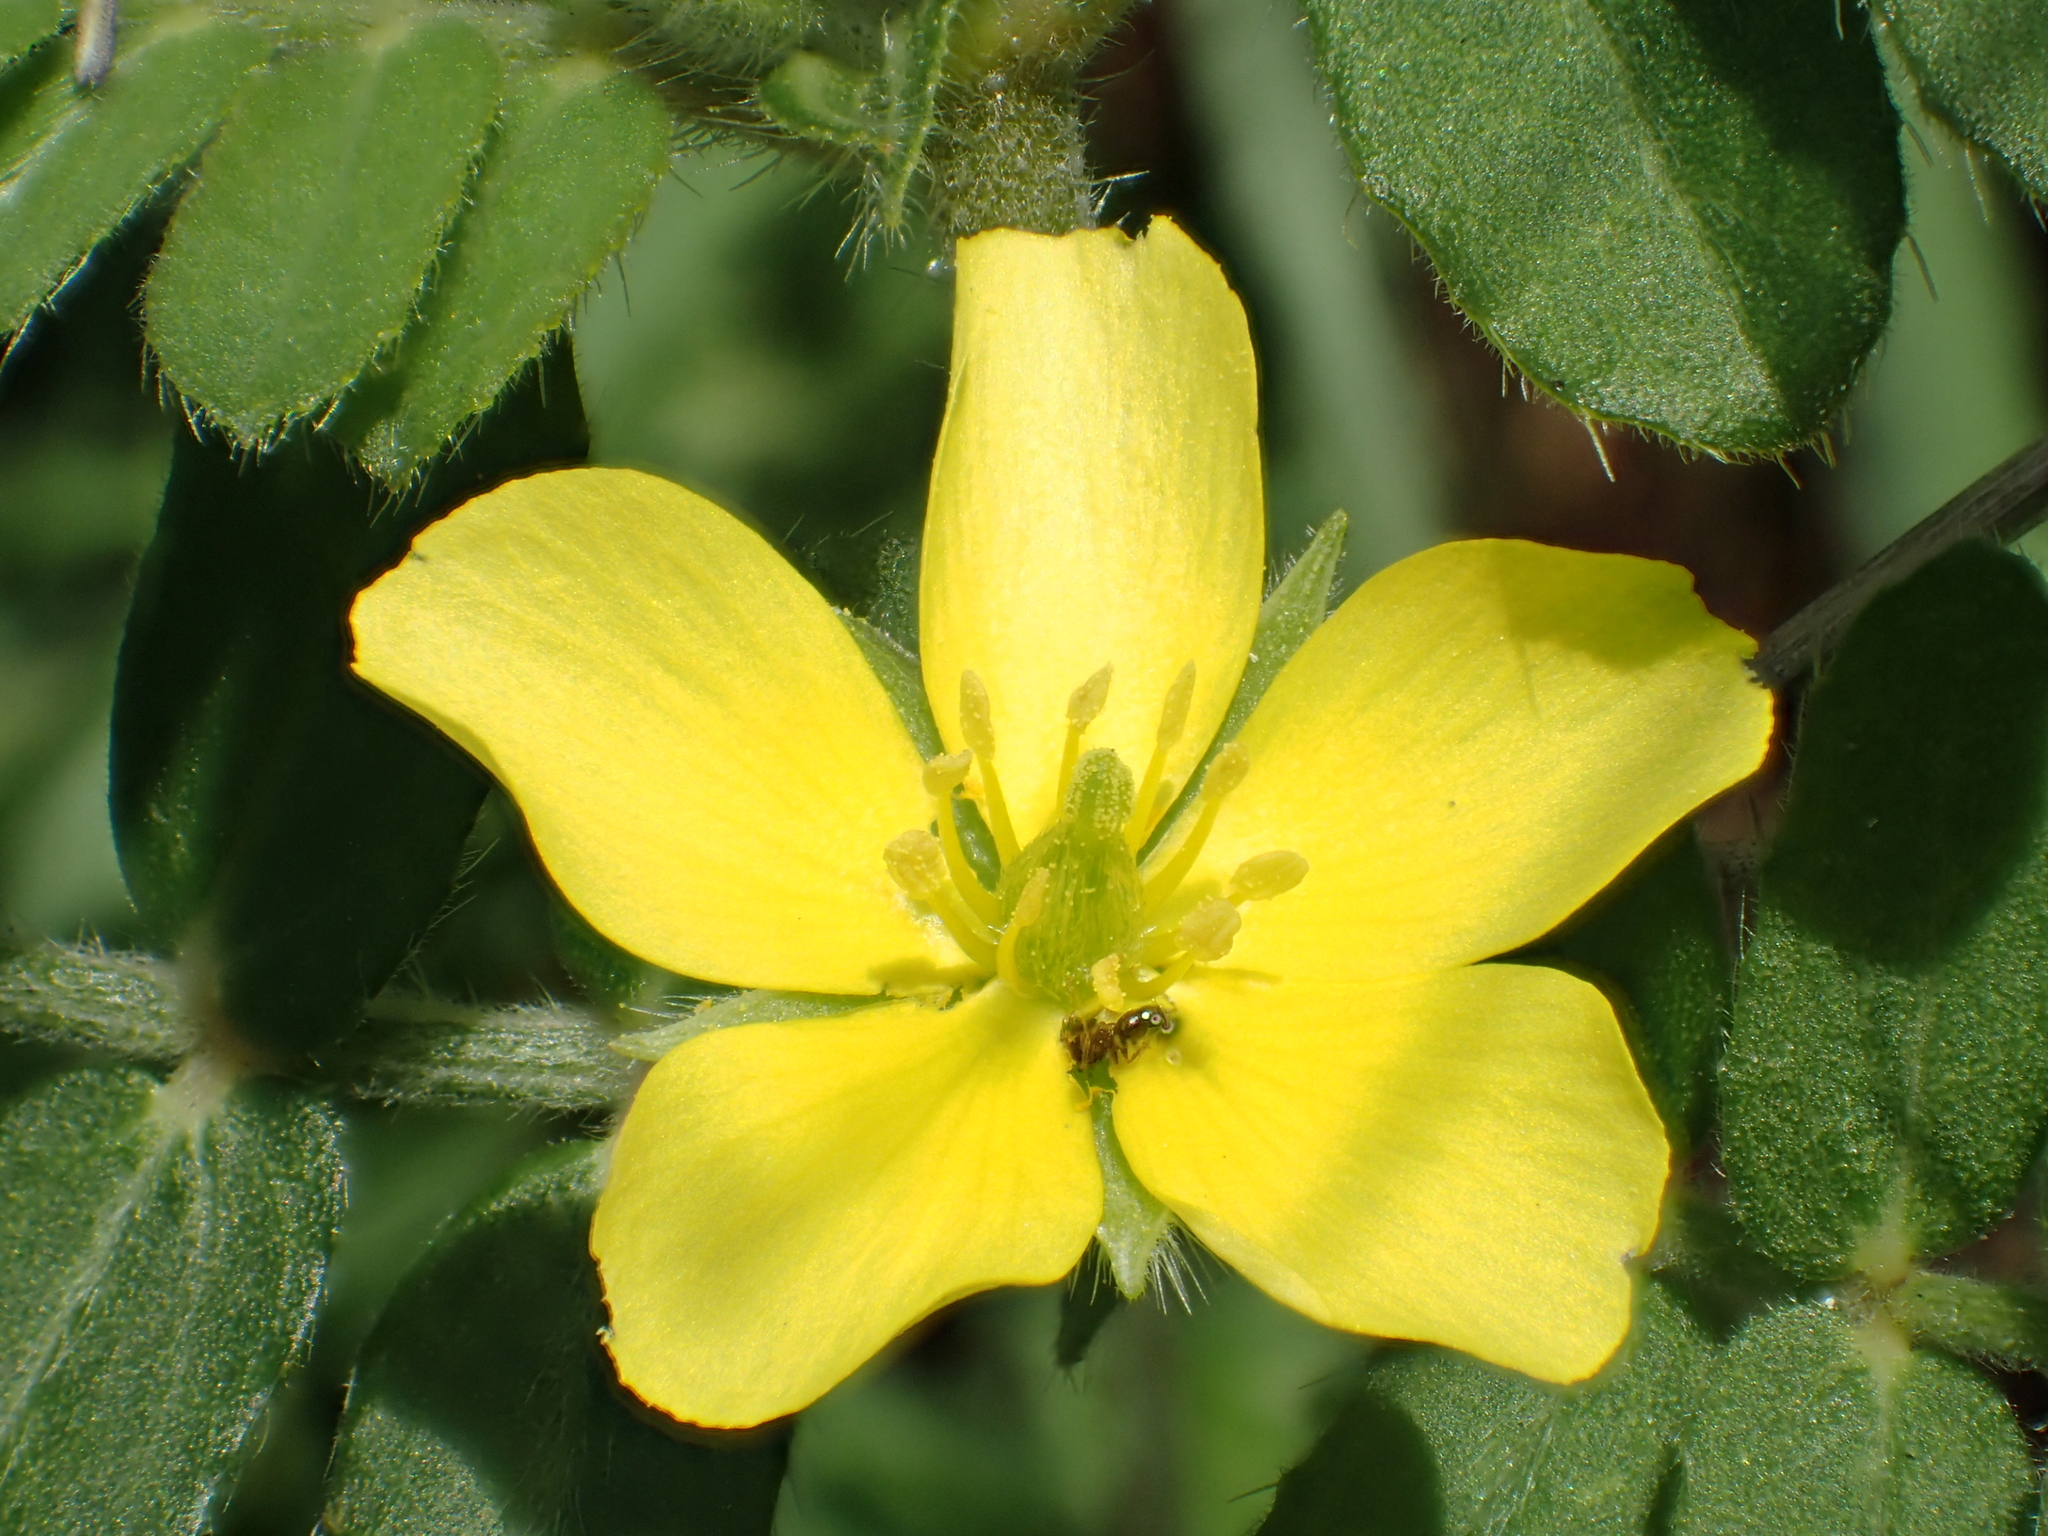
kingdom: Plantae
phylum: Tracheophyta
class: Magnoliopsida
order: Zygophyllales
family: Zygophyllaceae
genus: Tribulus
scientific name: Tribulus cistoides
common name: Jamaican feverplant
